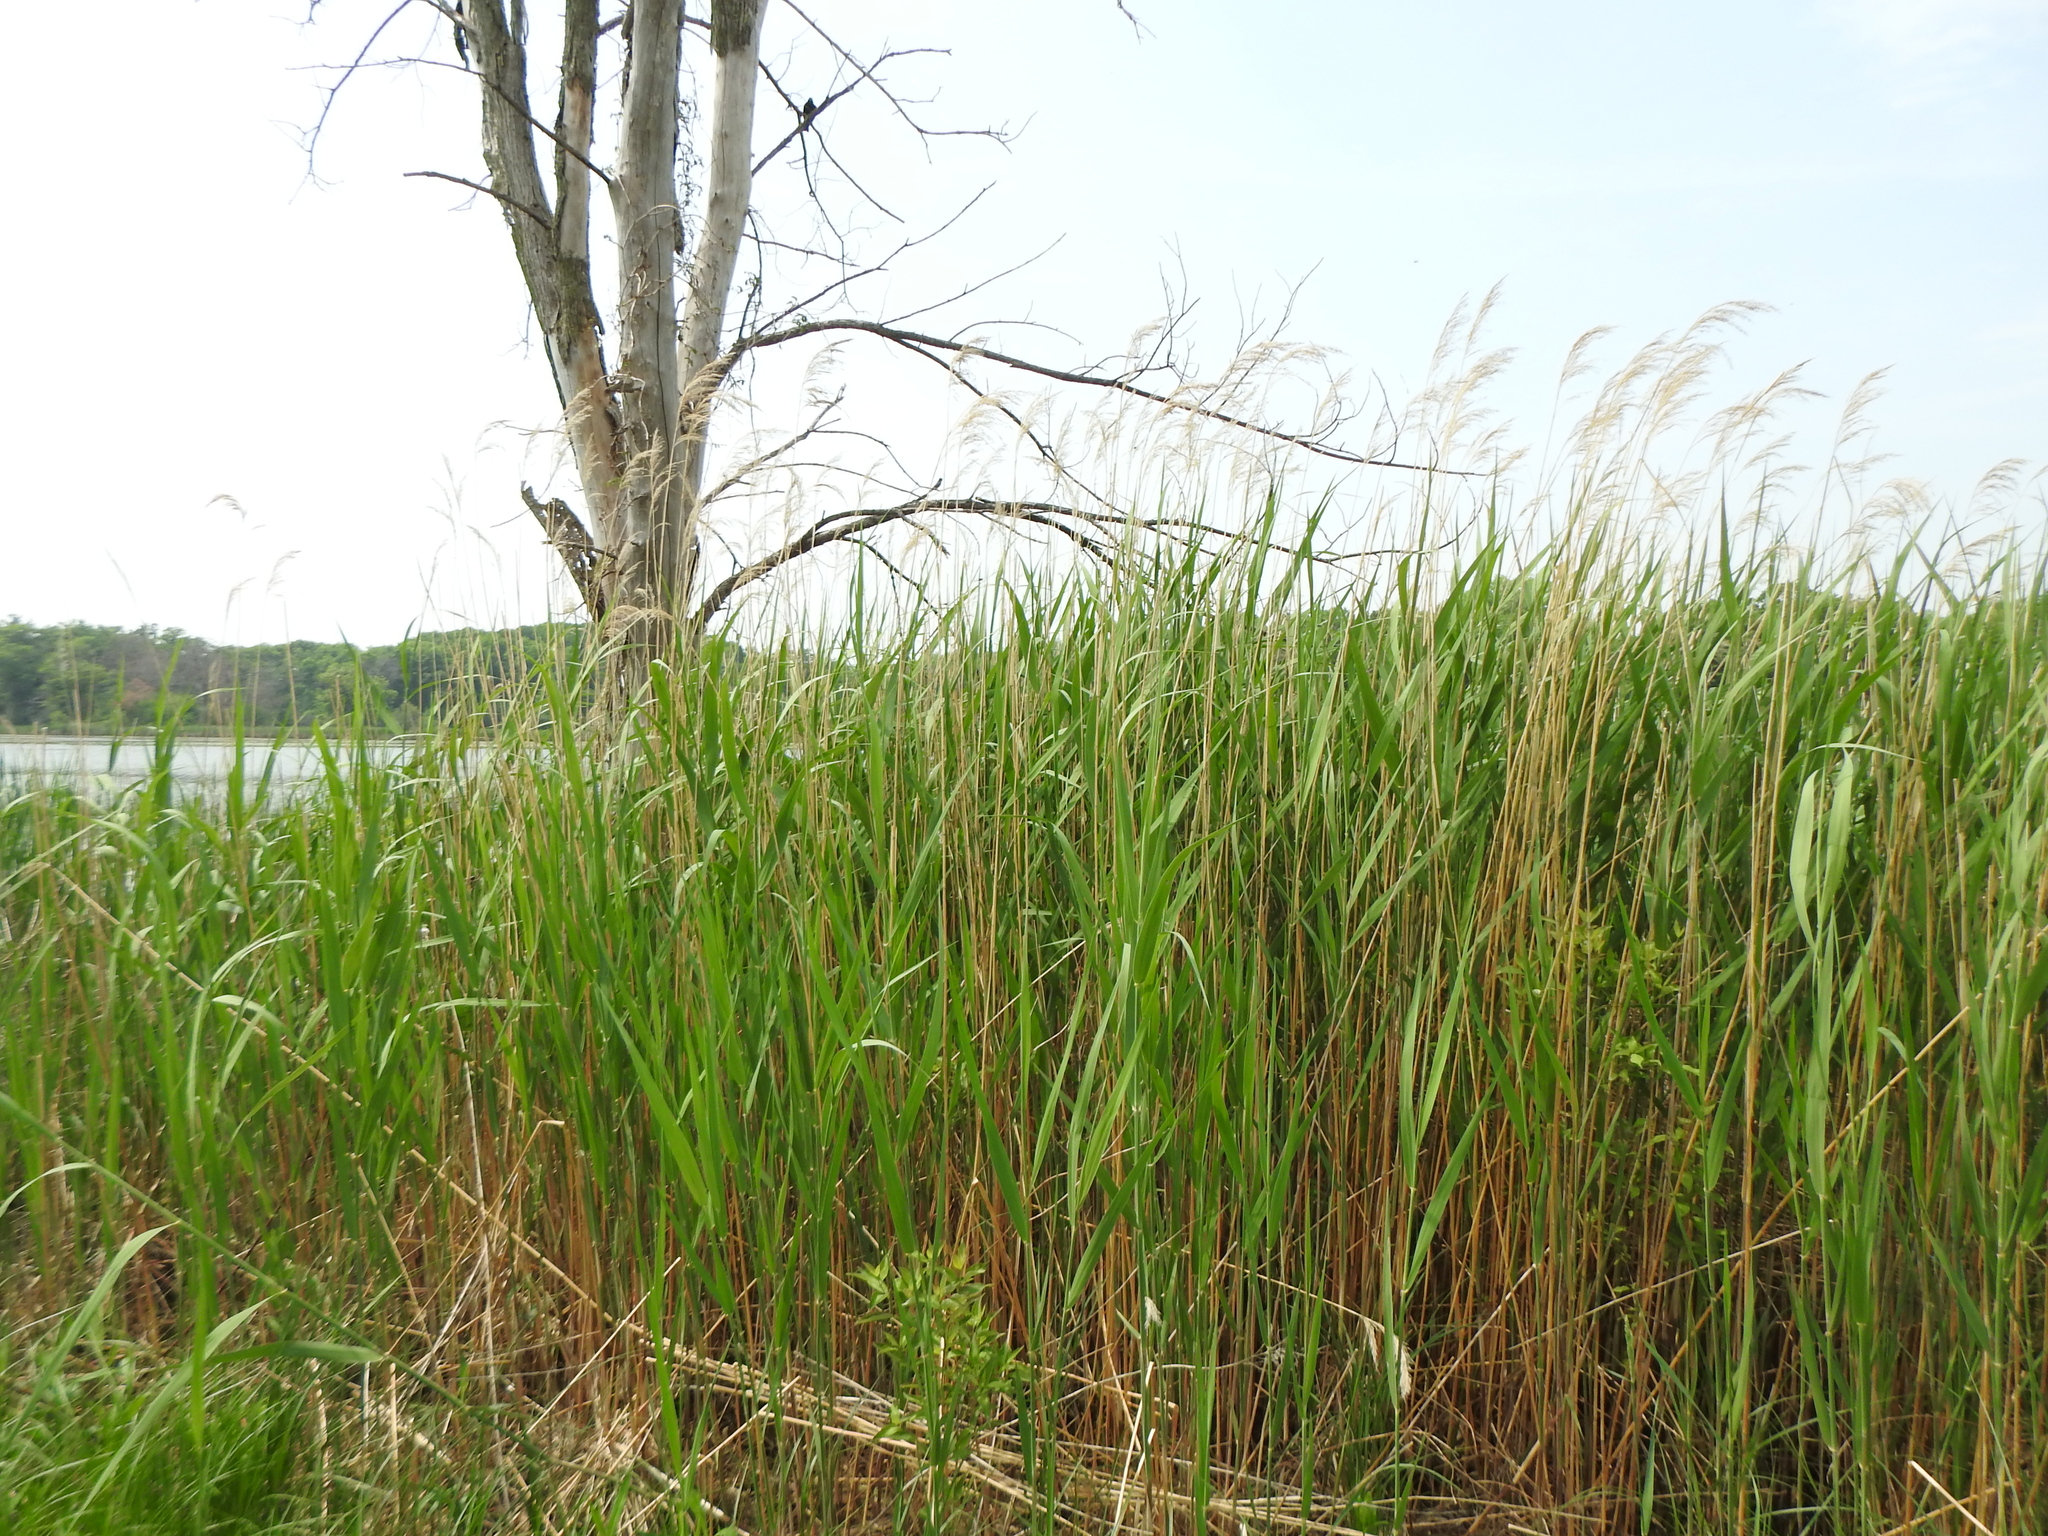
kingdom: Plantae
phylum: Tracheophyta
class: Liliopsida
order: Poales
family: Poaceae
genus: Phragmites
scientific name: Phragmites australis
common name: Common reed
